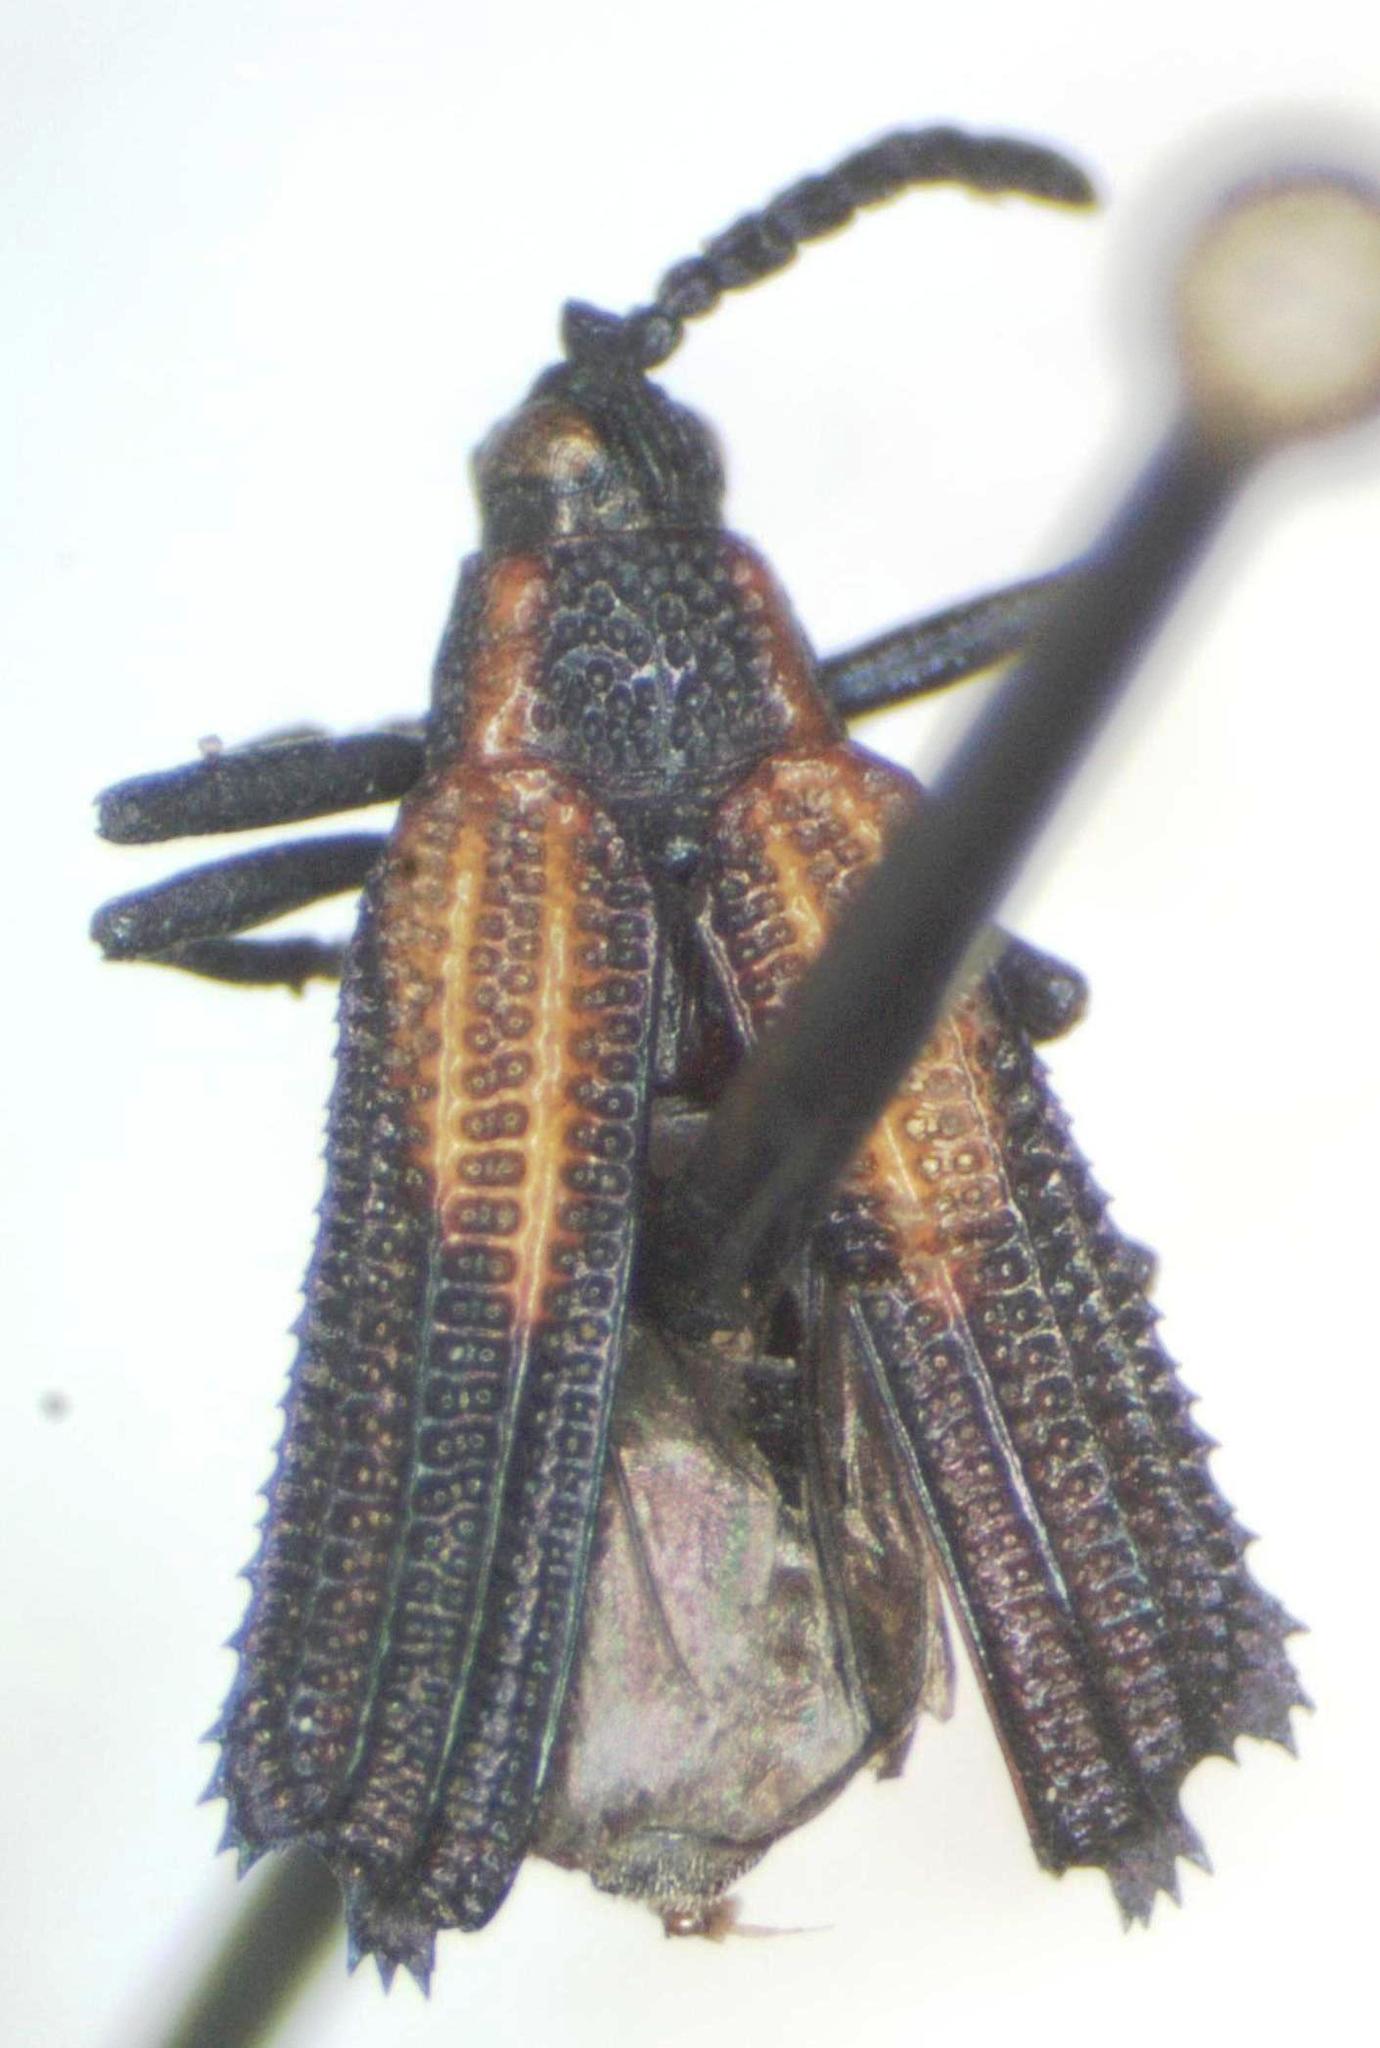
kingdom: Animalia
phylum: Arthropoda
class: Insecta
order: Coleoptera
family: Chrysomelidae
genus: Pentispa
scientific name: Pentispa clarkella
